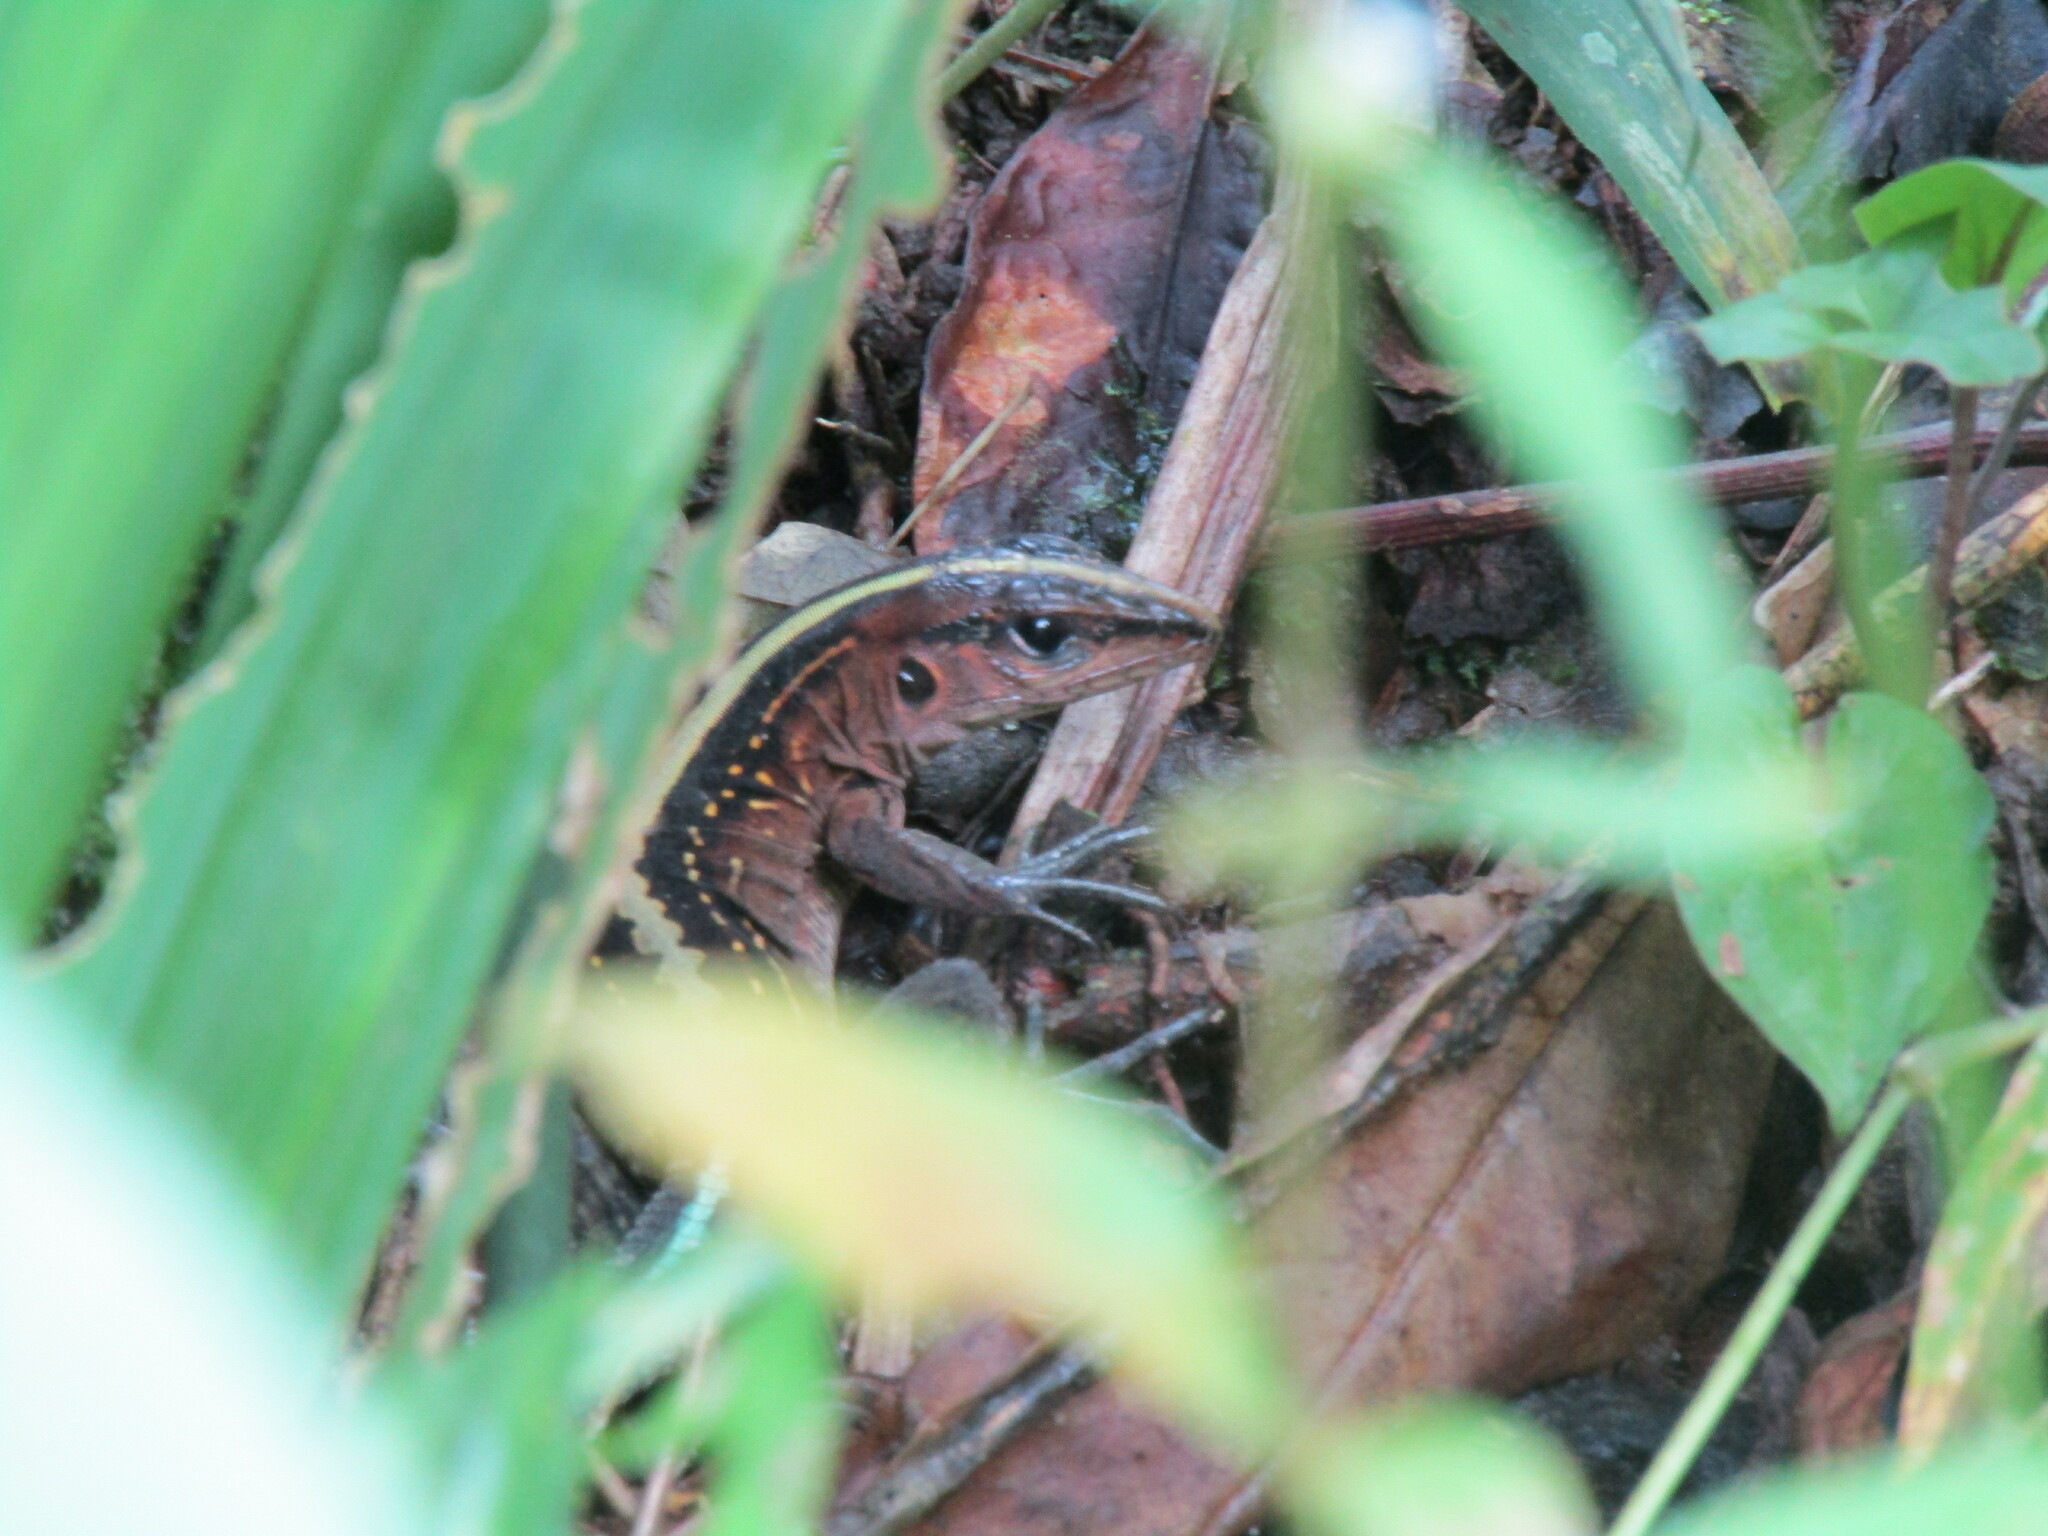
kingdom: Animalia
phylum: Chordata
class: Squamata
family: Teiidae
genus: Holcosus
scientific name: Holcosus festivus
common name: Middle american ameiva
